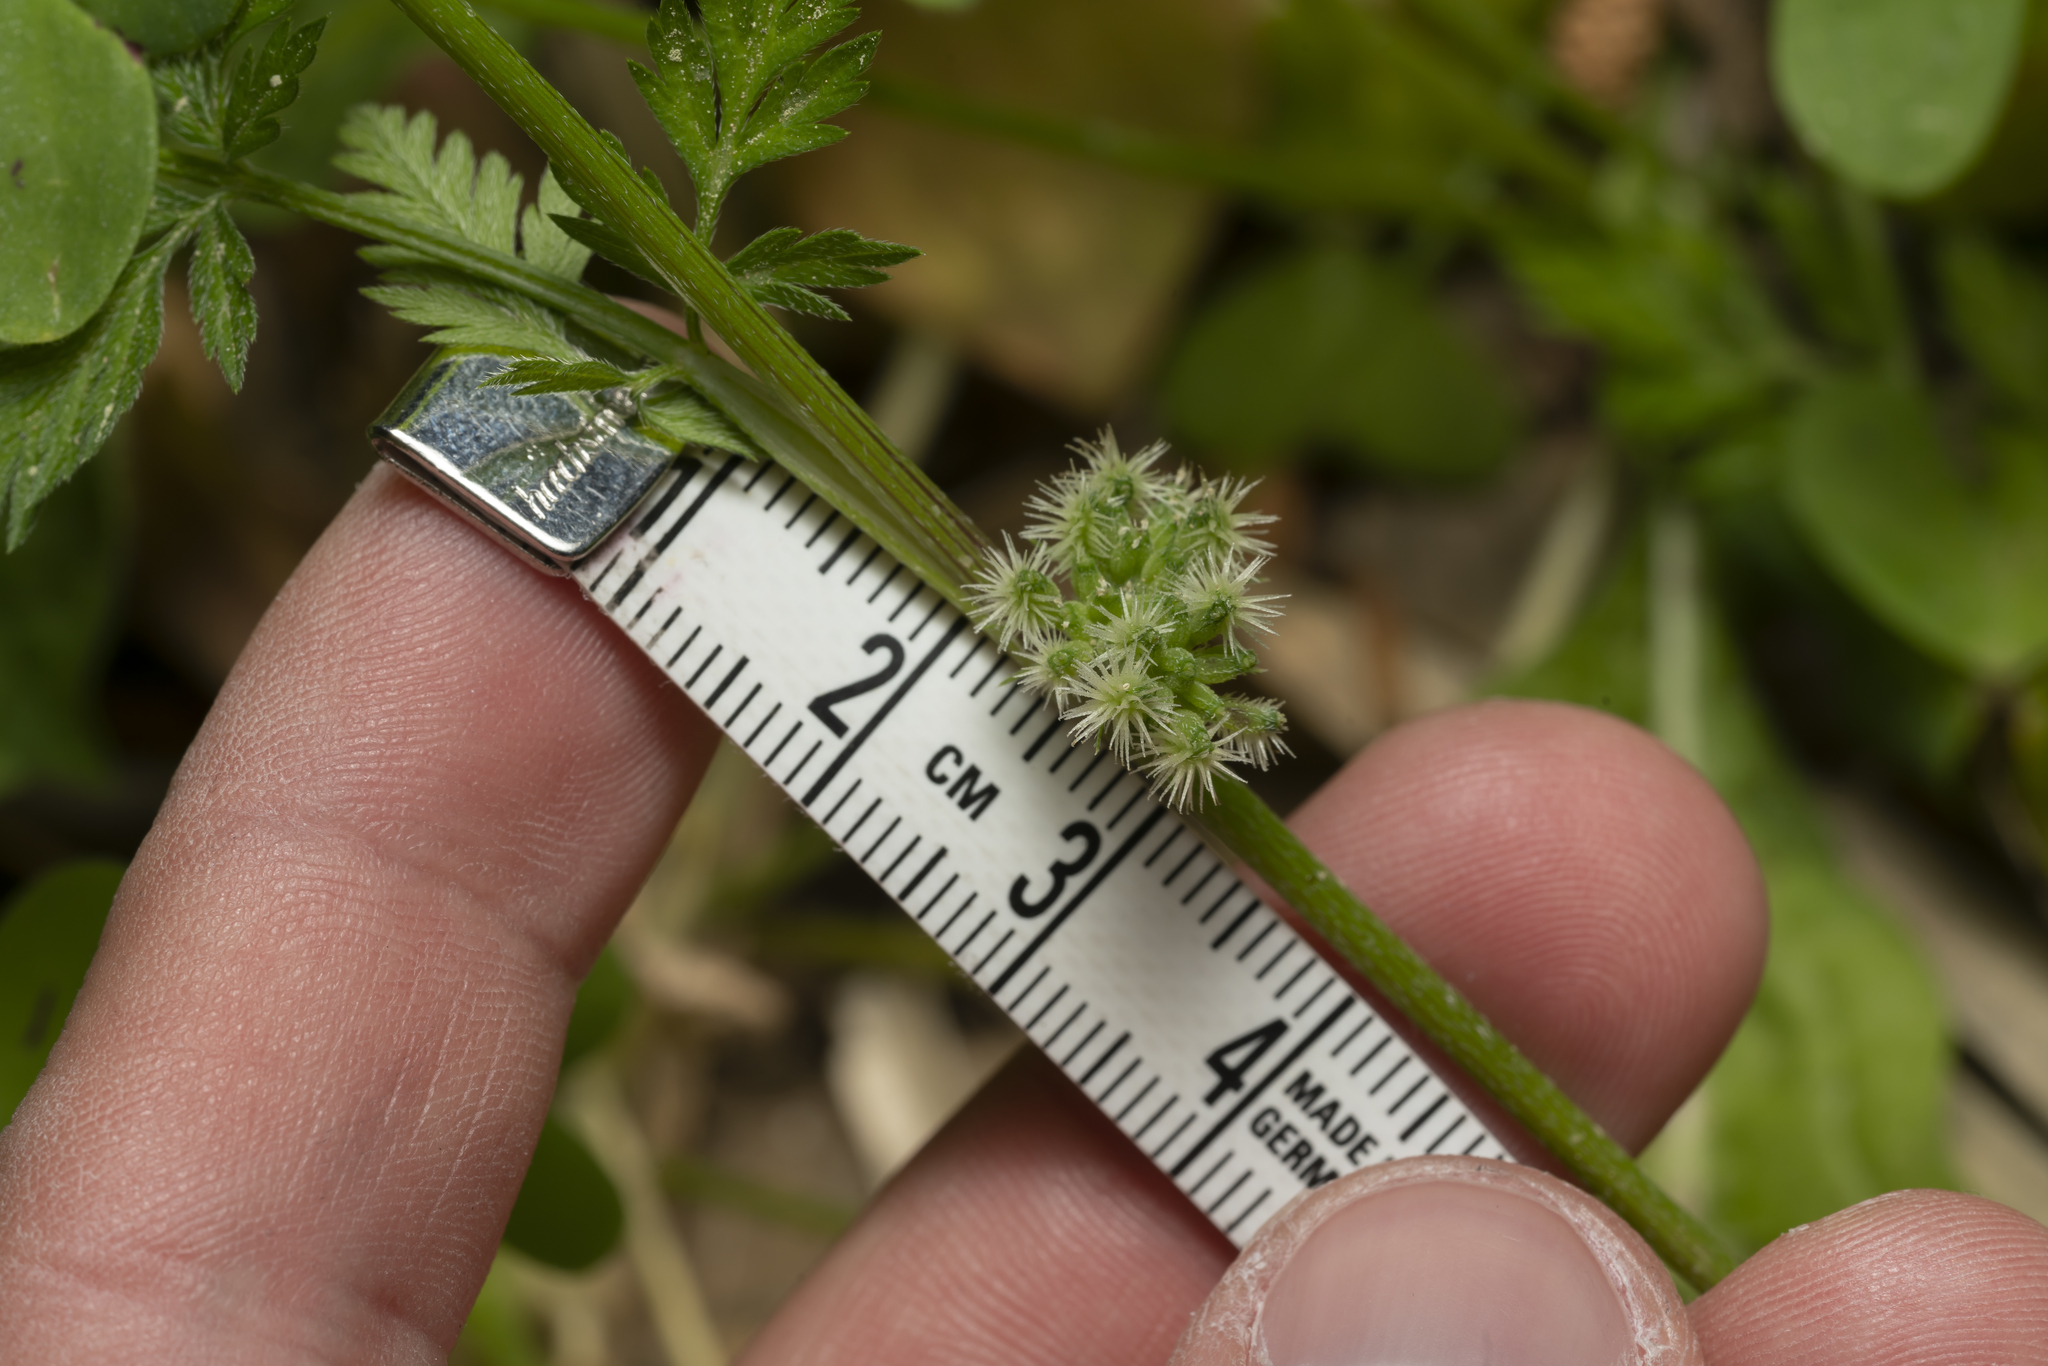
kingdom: Plantae
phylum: Tracheophyta
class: Magnoliopsida
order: Apiales
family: Apiaceae
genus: Torilis
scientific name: Torilis nodosa
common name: Knotted hedge-parsley
